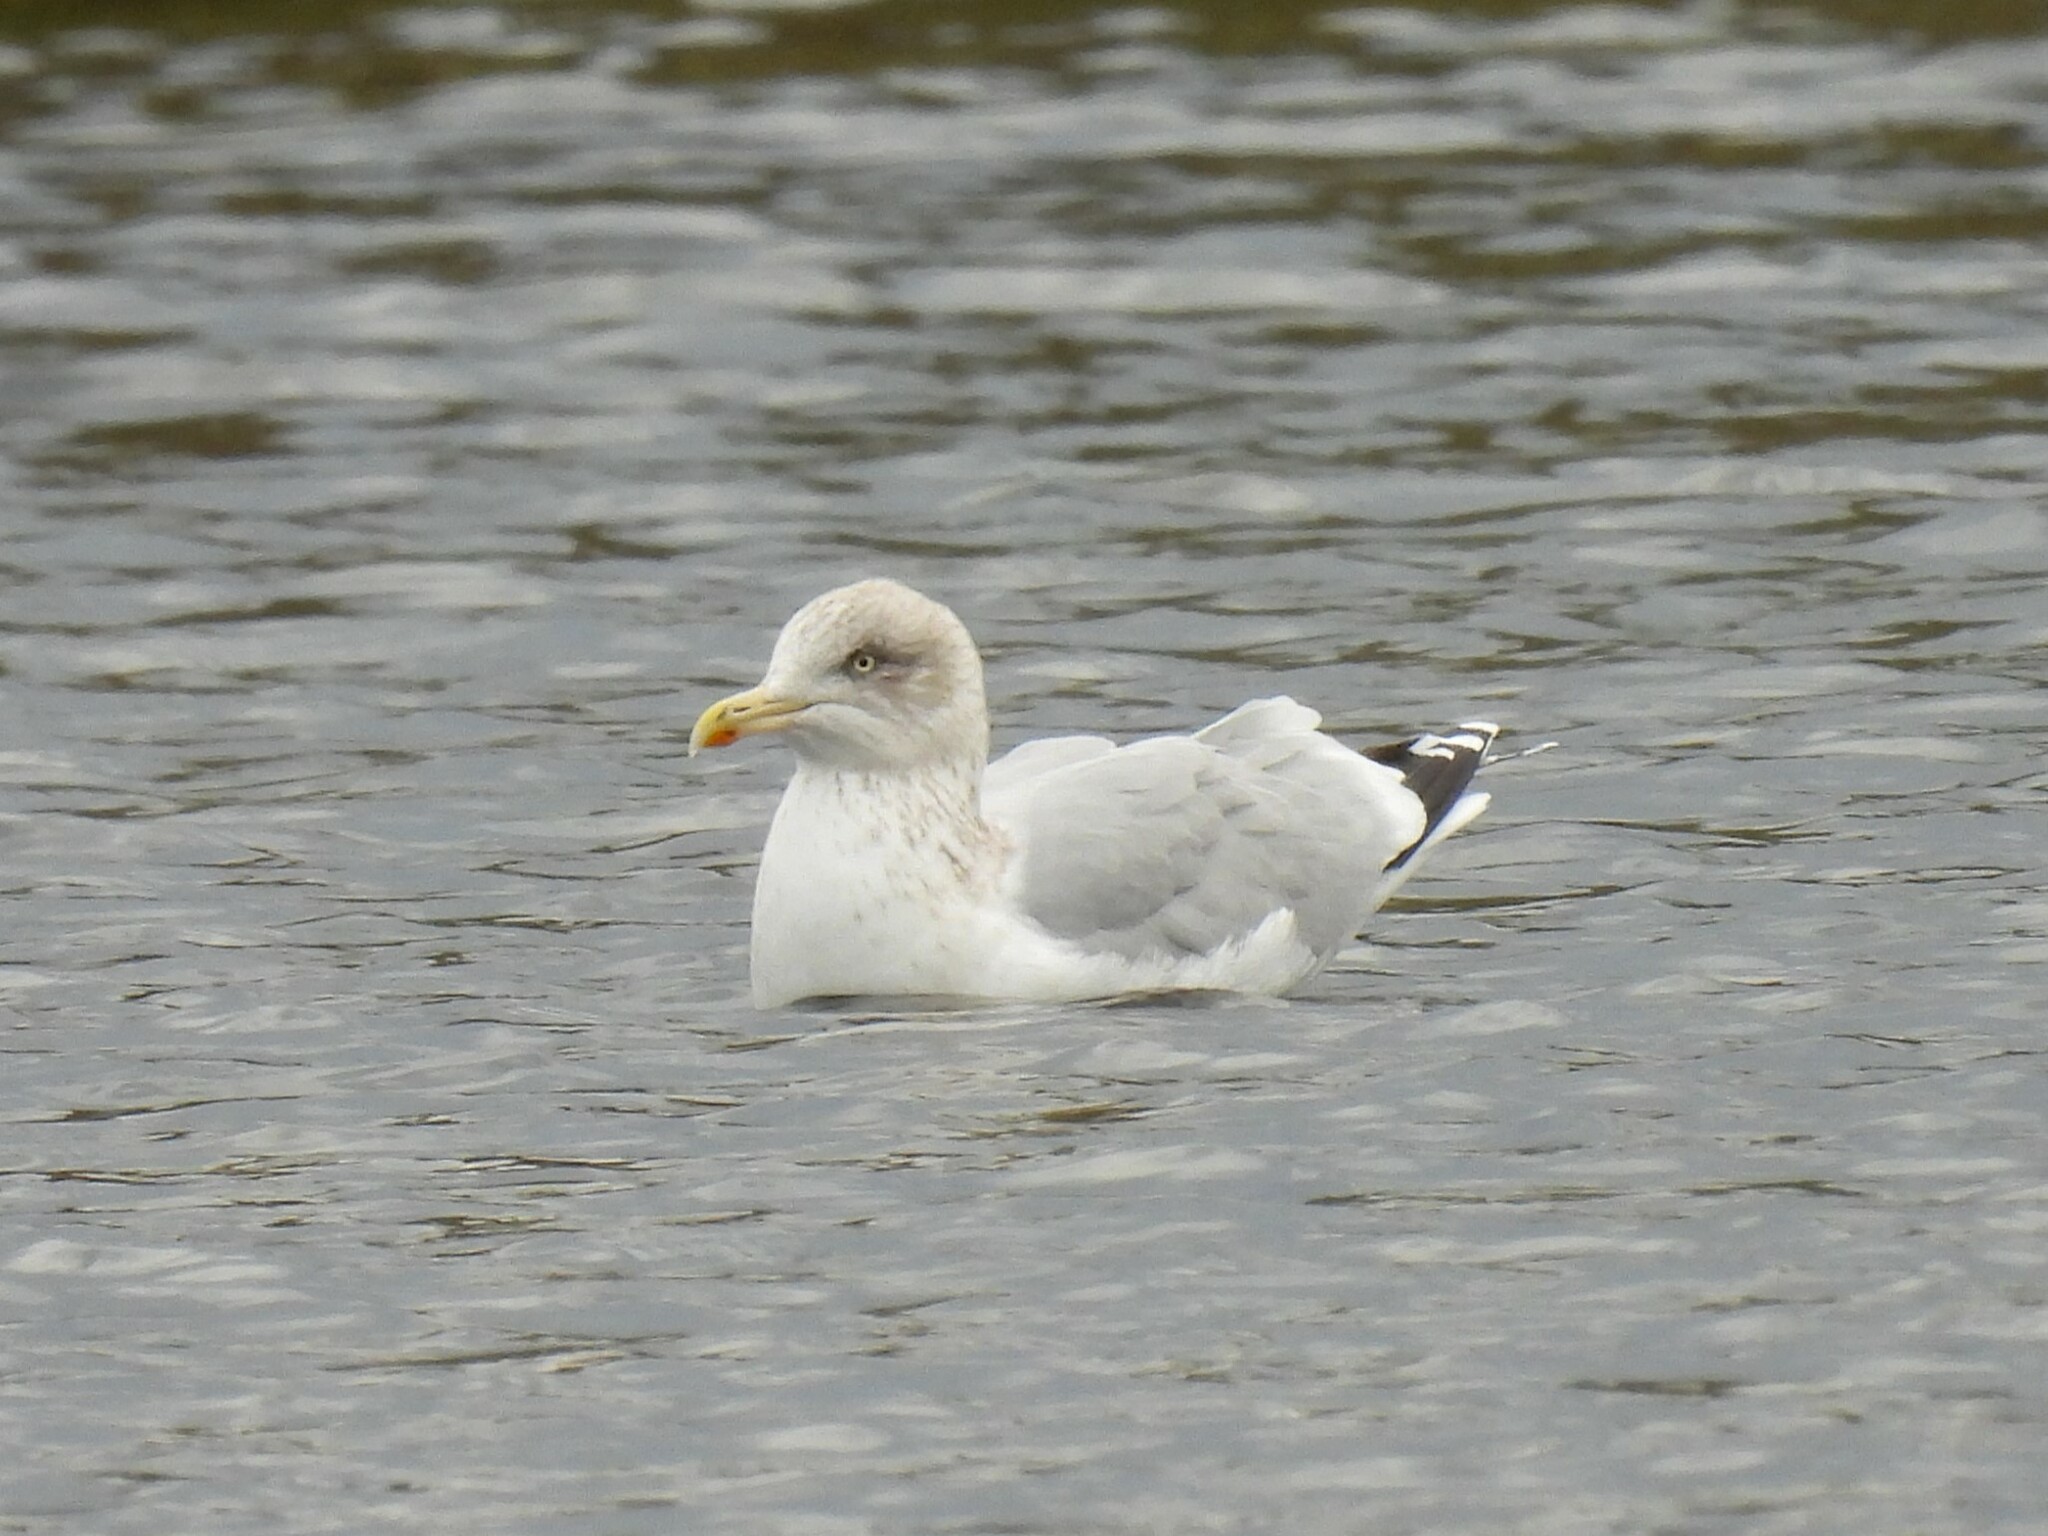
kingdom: Animalia
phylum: Chordata
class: Aves
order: Charadriiformes
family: Laridae
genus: Larus
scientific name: Larus argentatus
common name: Herring gull
